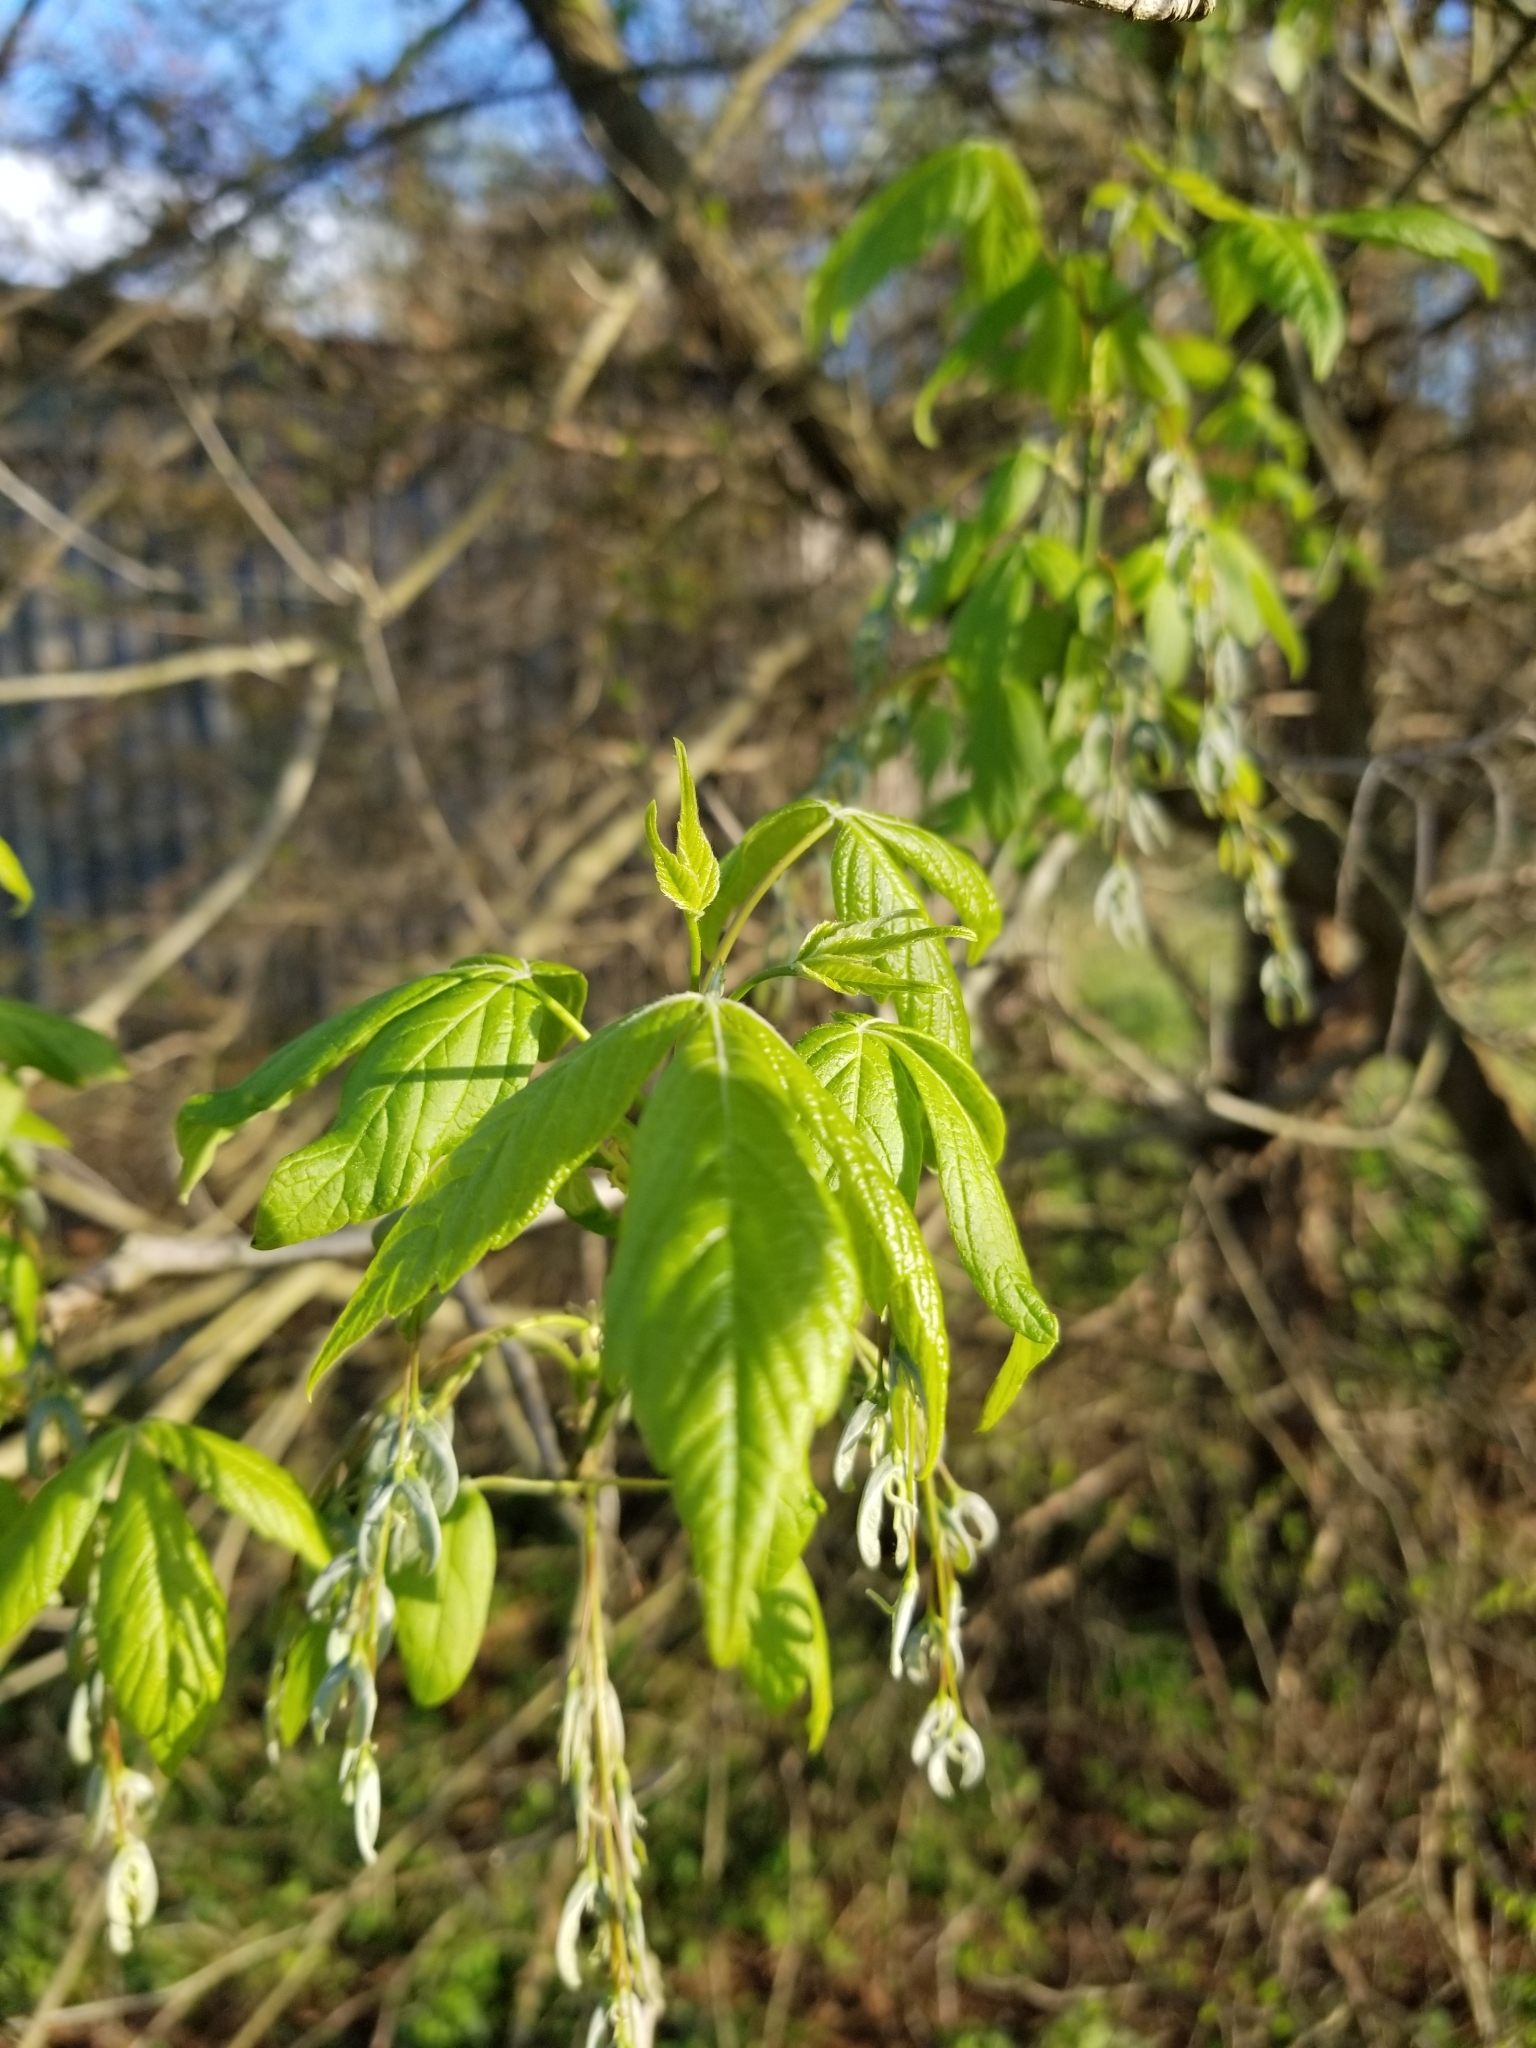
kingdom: Plantae
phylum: Tracheophyta
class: Magnoliopsida
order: Sapindales
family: Sapindaceae
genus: Acer
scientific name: Acer negundo
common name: Ashleaf maple
